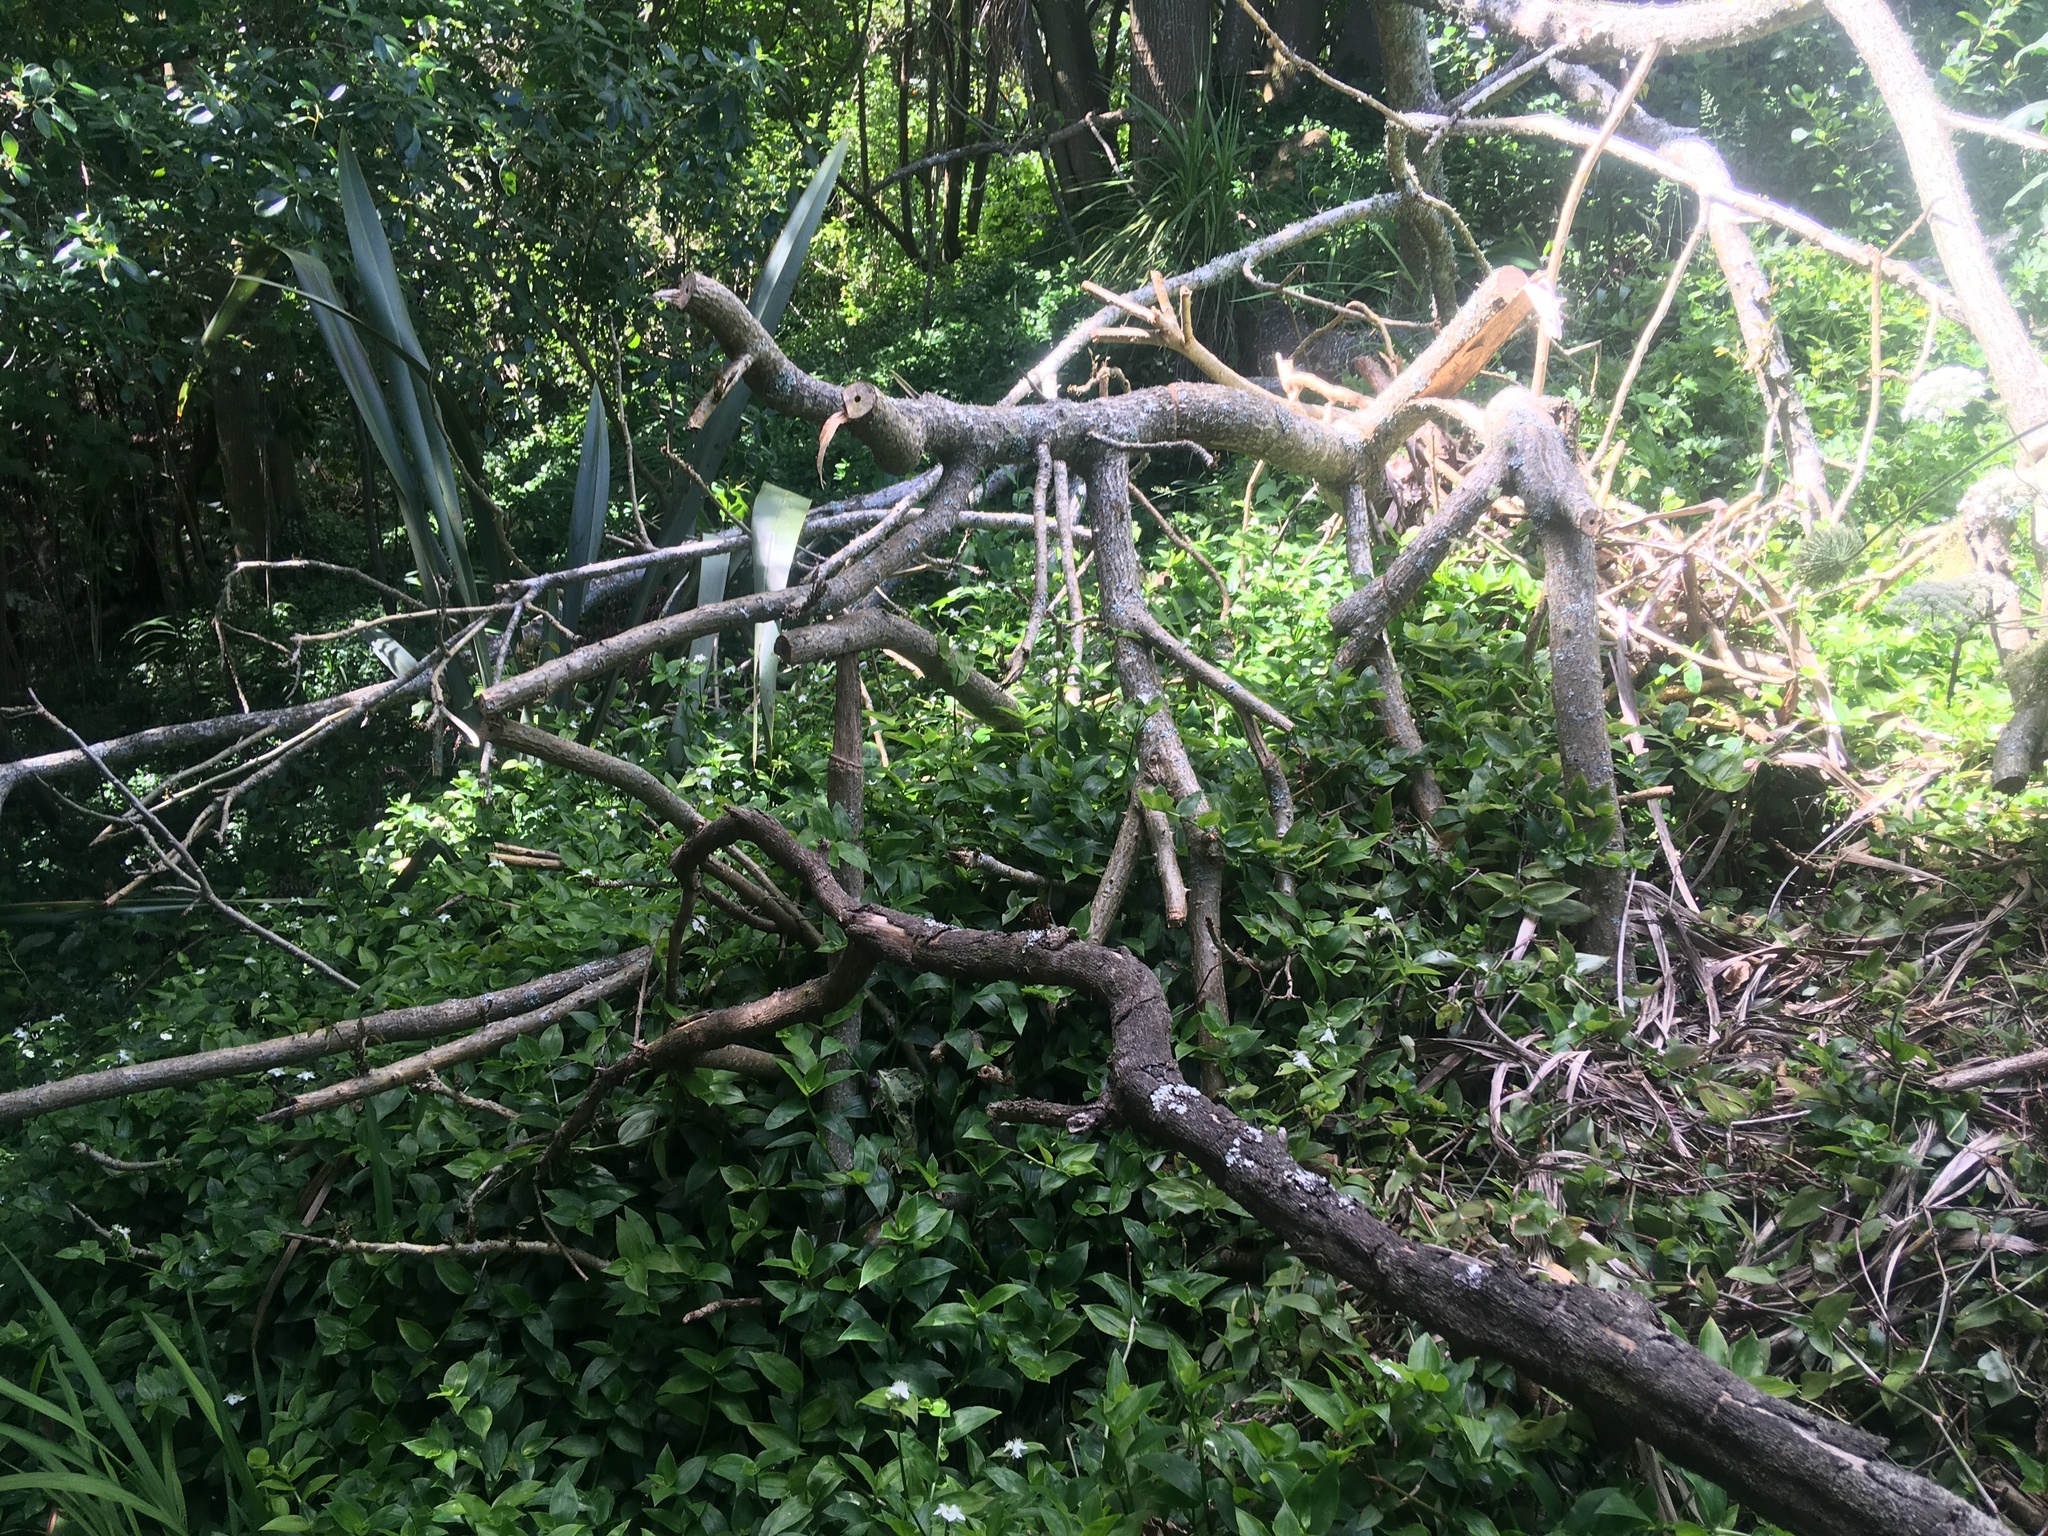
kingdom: Plantae
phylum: Tracheophyta
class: Magnoliopsida
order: Gentianales
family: Rubiaceae
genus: Coprosma
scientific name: Coprosma robusta
